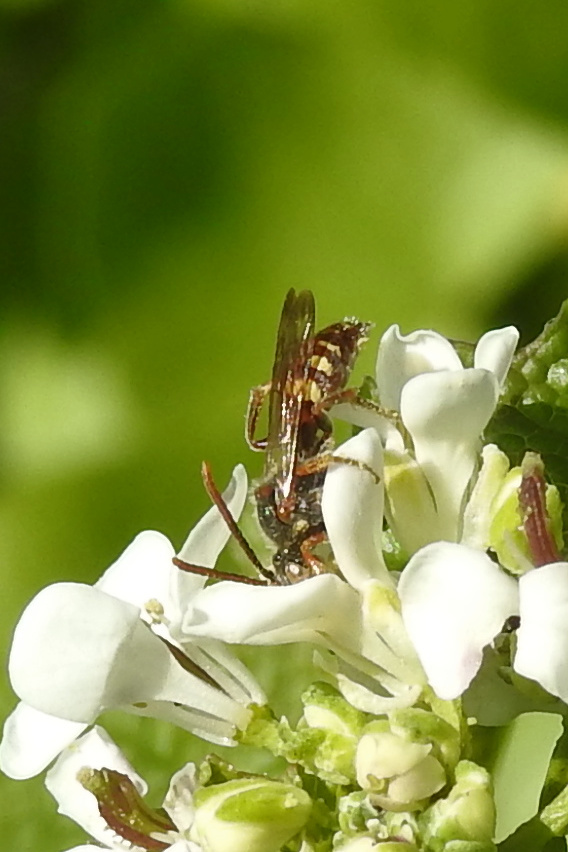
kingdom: Animalia
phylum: Arthropoda
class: Insecta
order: Hymenoptera
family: Apidae
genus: Nomada
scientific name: Nomada
